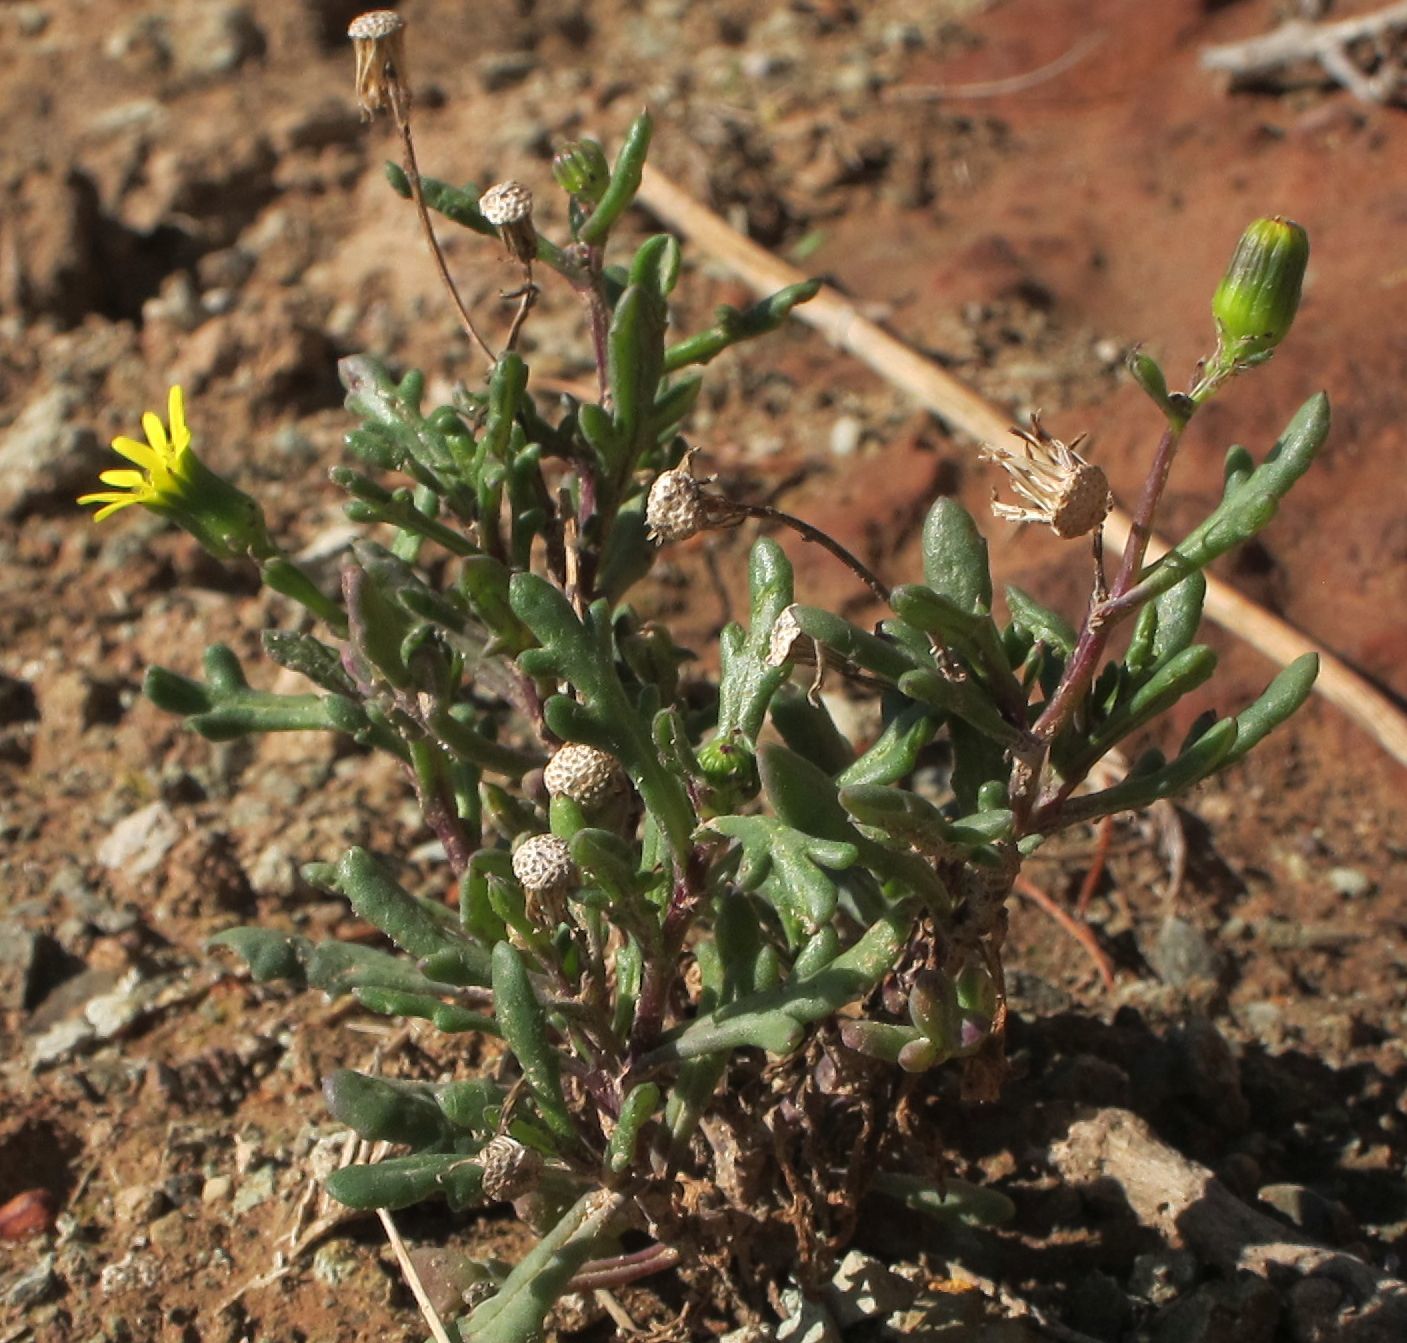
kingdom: Plantae
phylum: Tracheophyta
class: Magnoliopsida
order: Asterales
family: Asteraceae
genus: Senecio
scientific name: Senecio carnosulus
